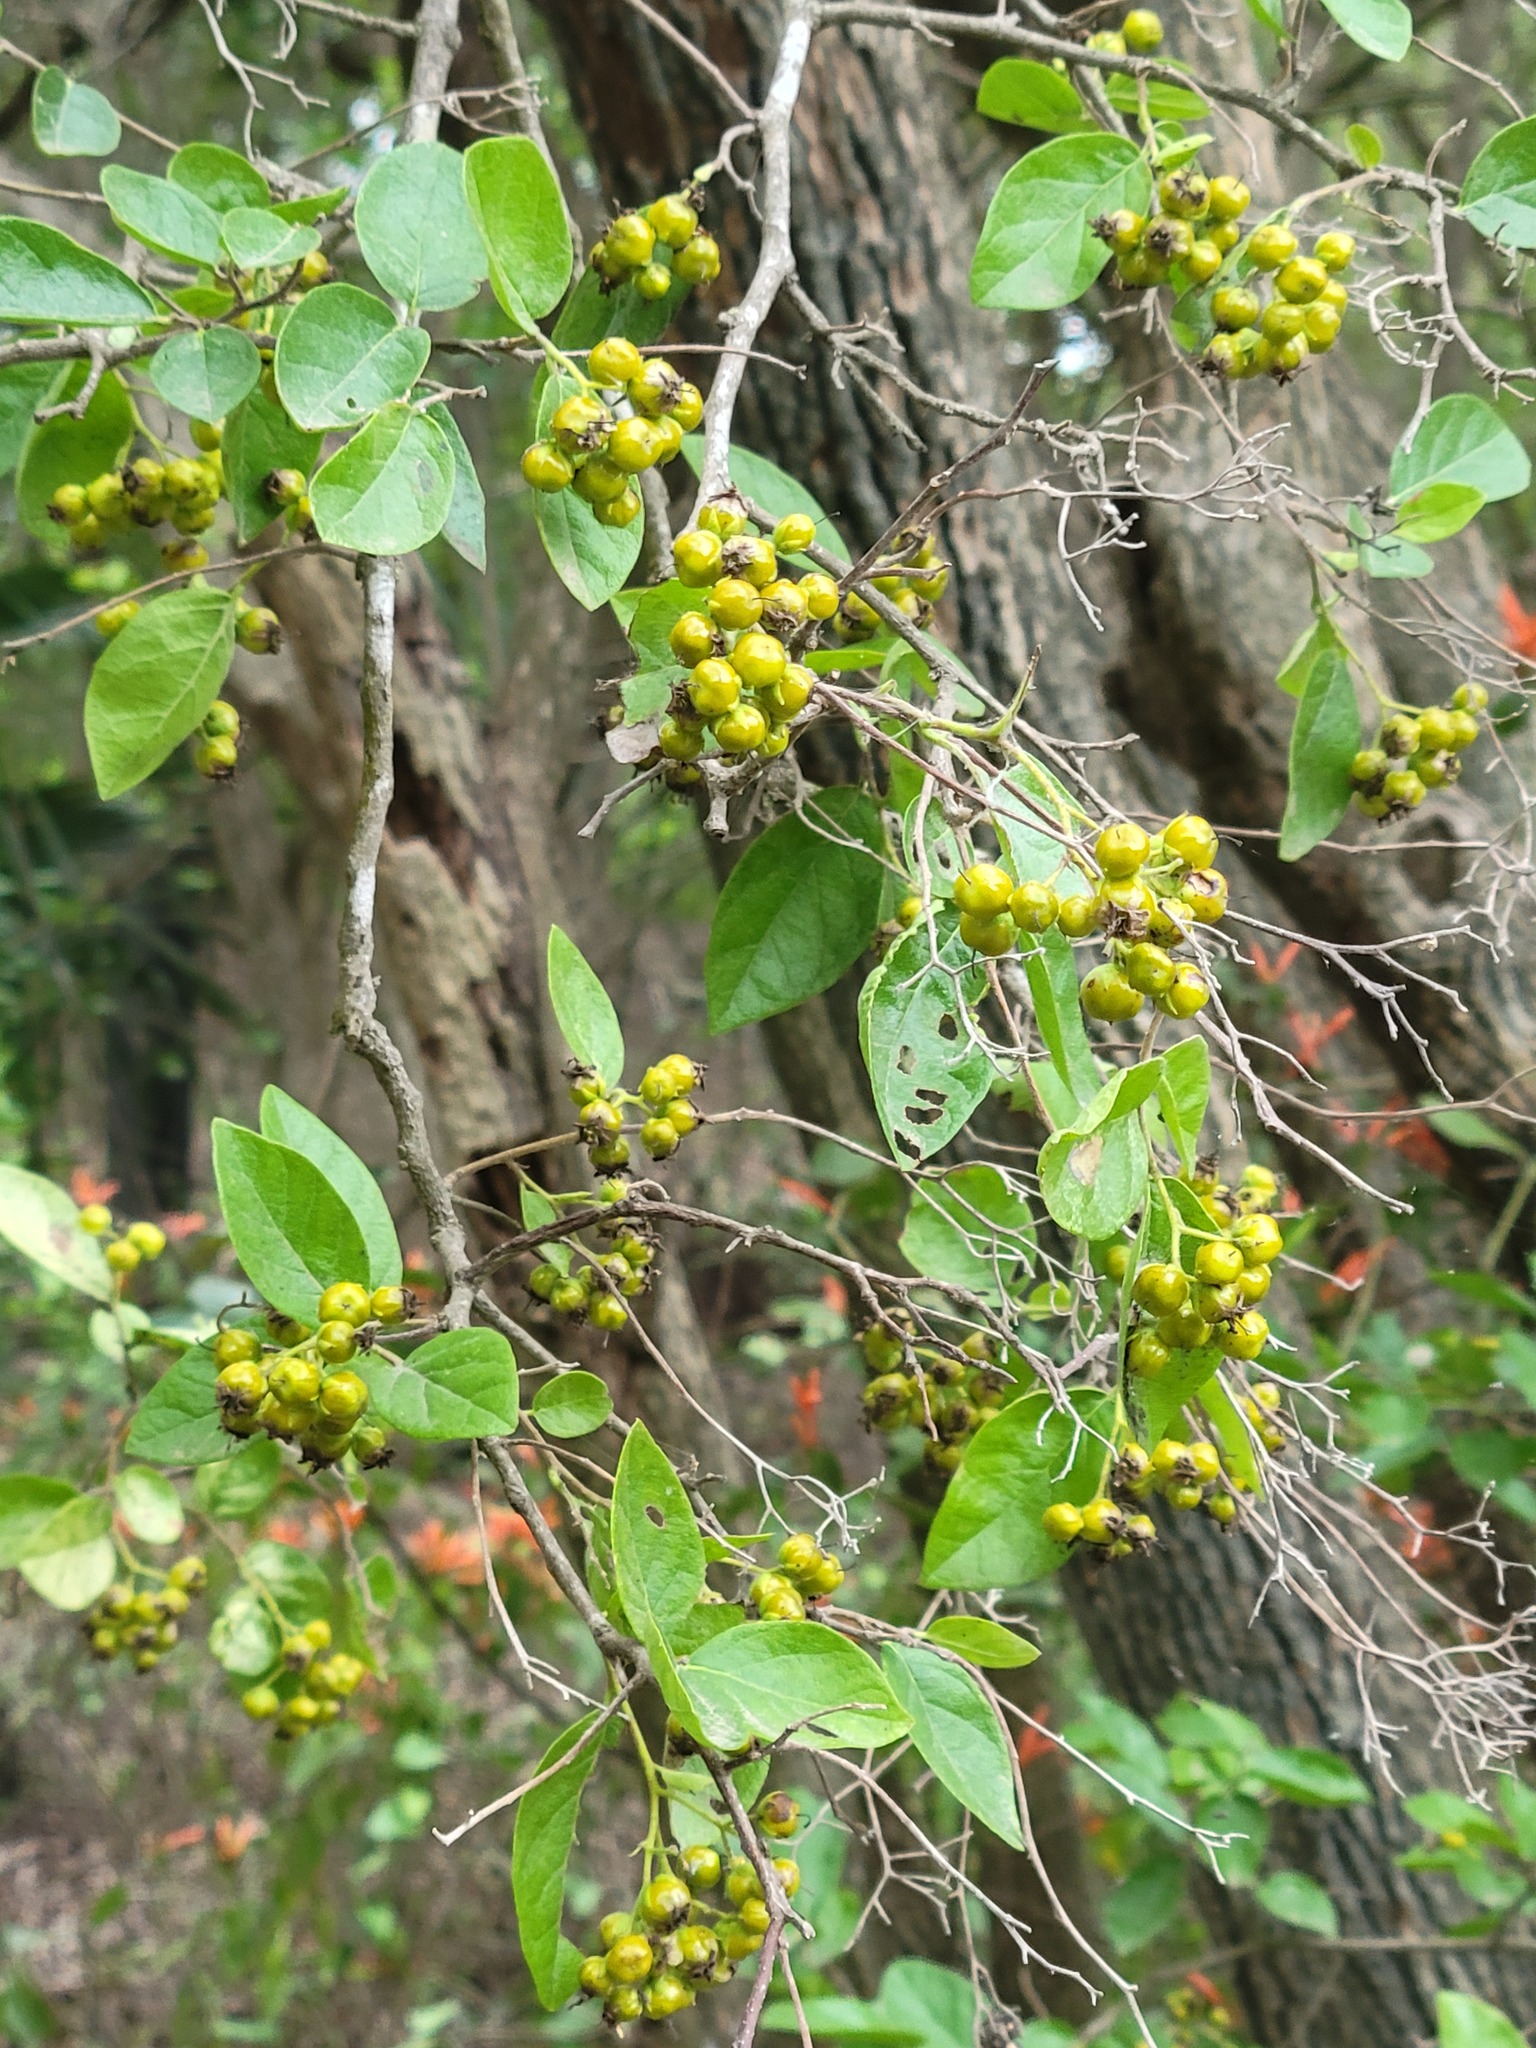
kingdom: Plantae
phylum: Tracheophyta
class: Magnoliopsida
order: Boraginales
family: Ehretiaceae
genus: Ehretia
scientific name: Ehretia anacua
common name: Sugarberry
